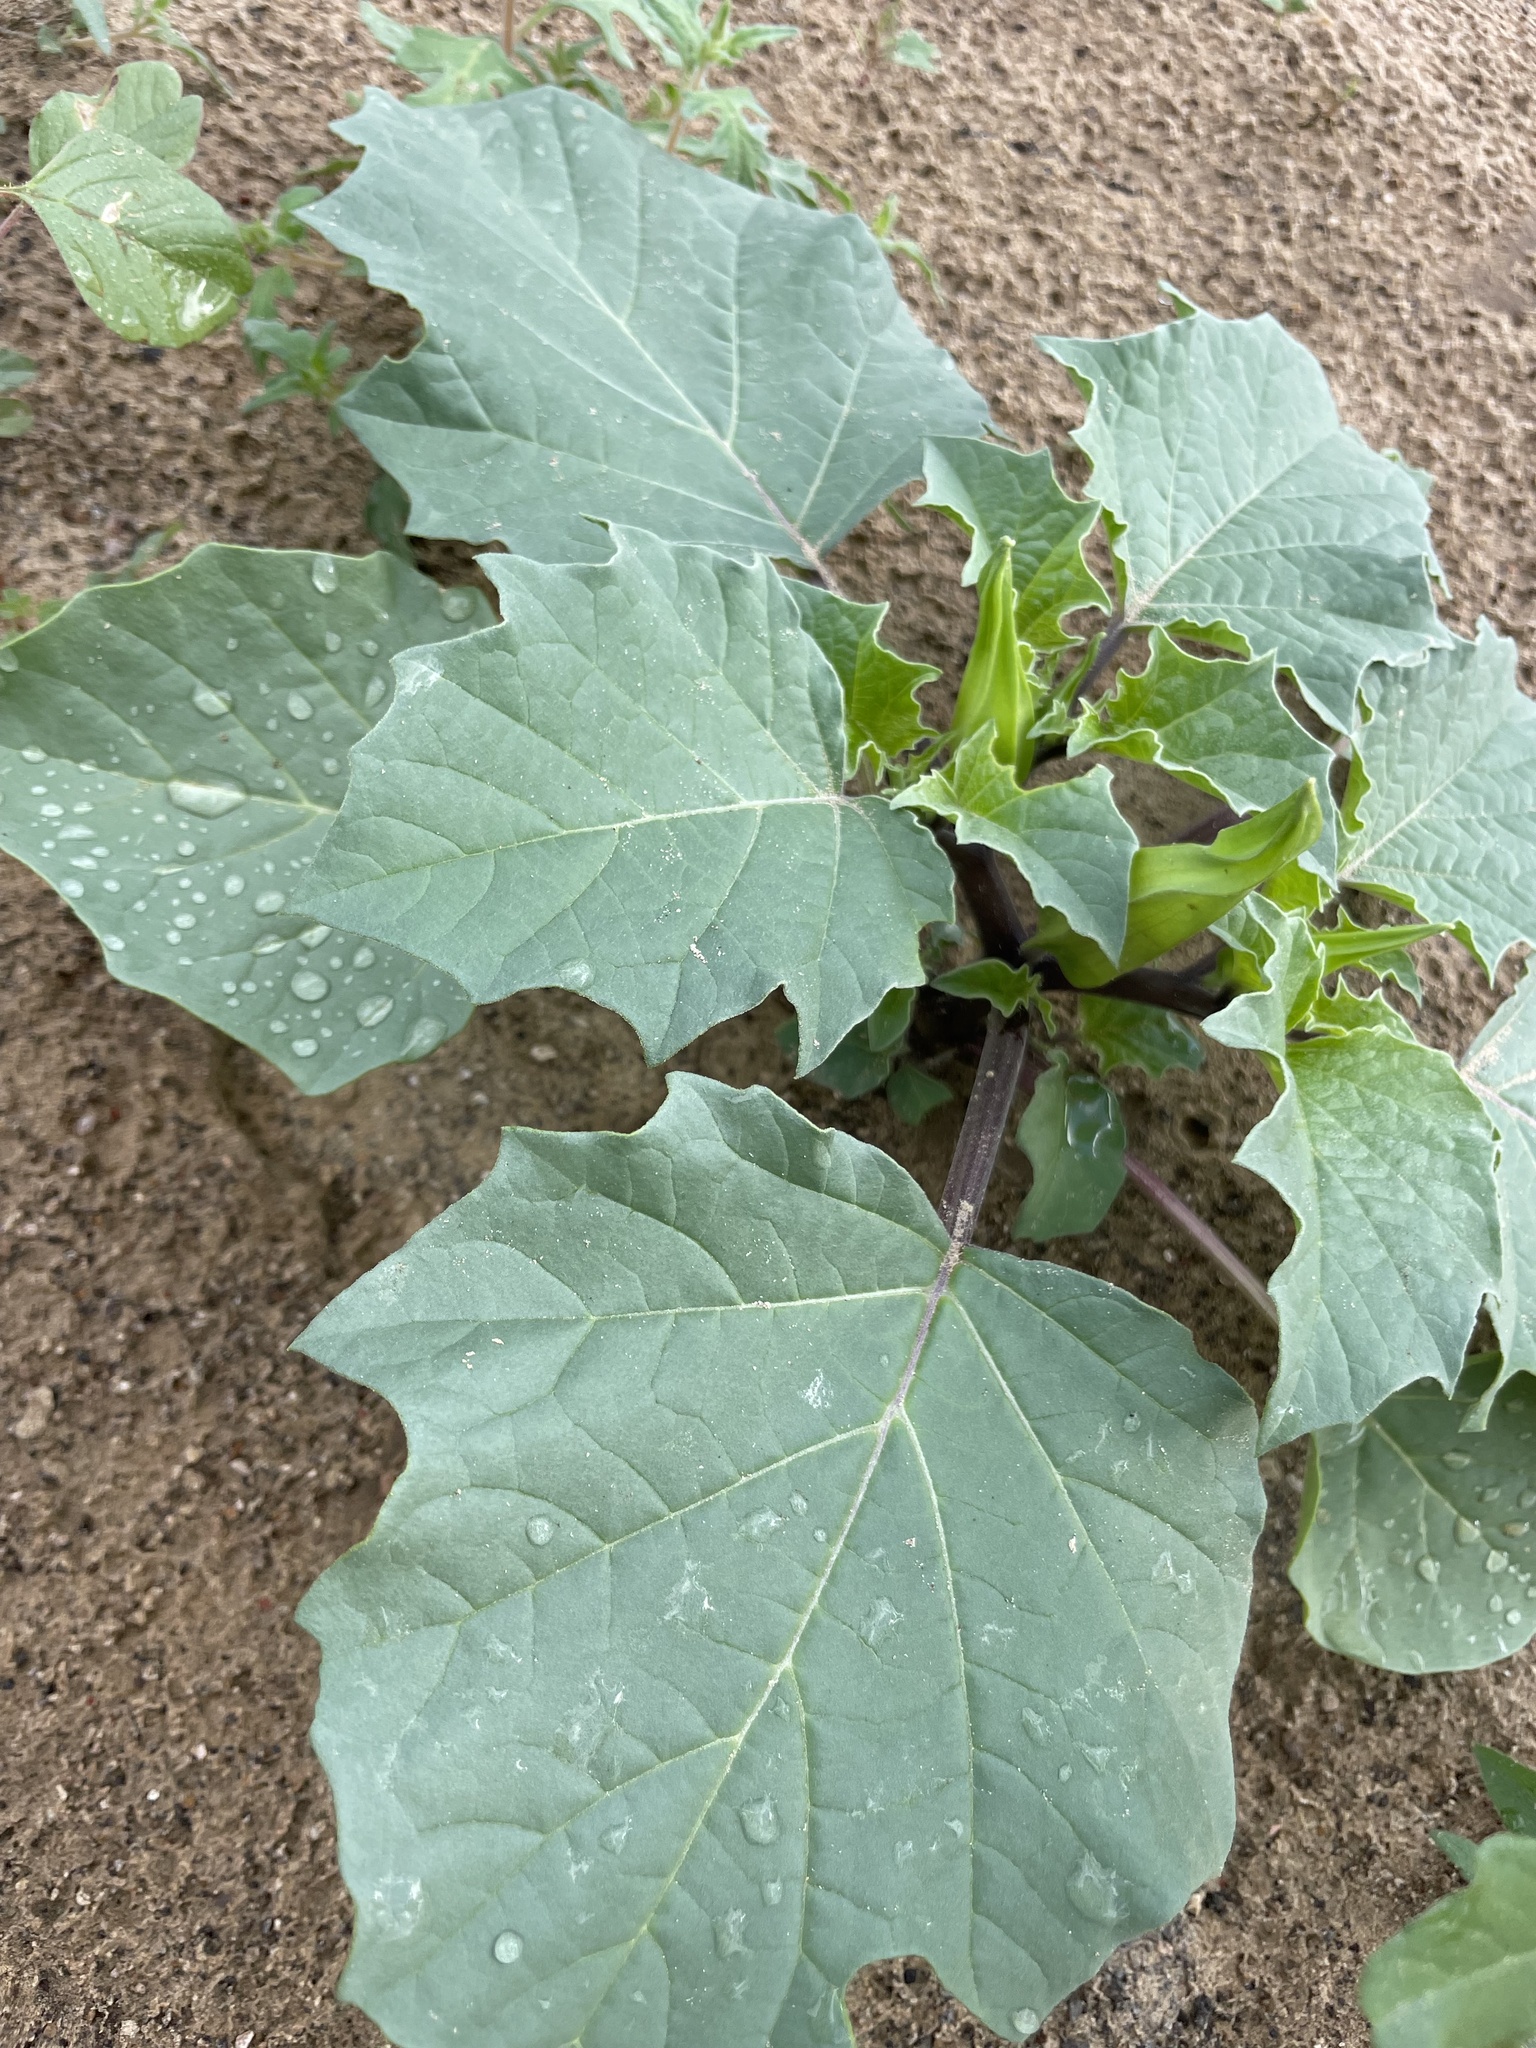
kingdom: Plantae
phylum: Tracheophyta
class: Magnoliopsida
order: Solanales
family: Solanaceae
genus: Datura
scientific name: Datura discolor
